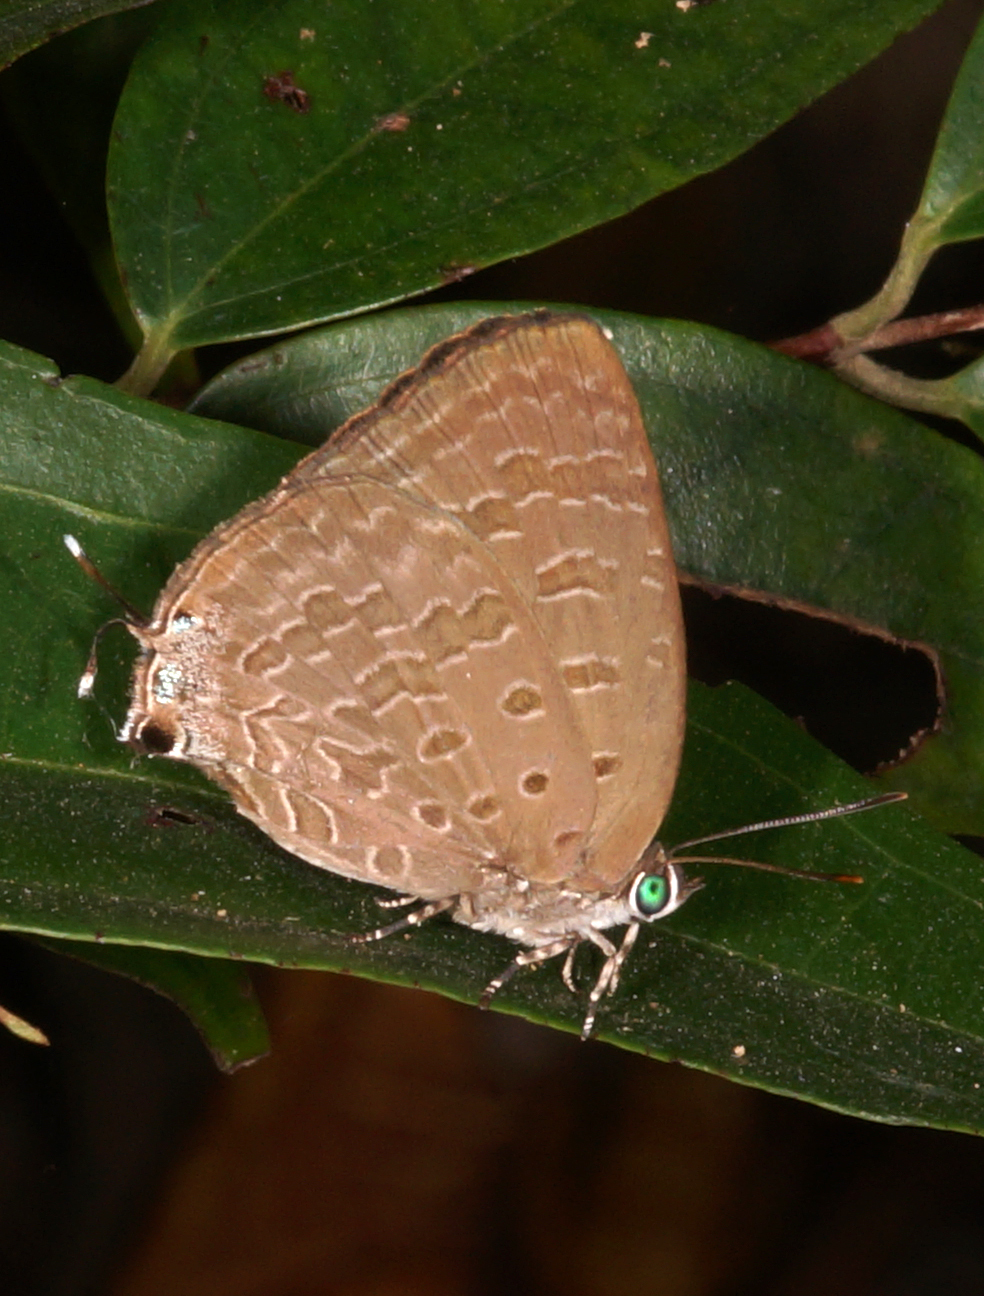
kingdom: Animalia
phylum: Arthropoda
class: Insecta
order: Lepidoptera
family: Lycaenidae
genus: Arhopala
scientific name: Arhopala aida
